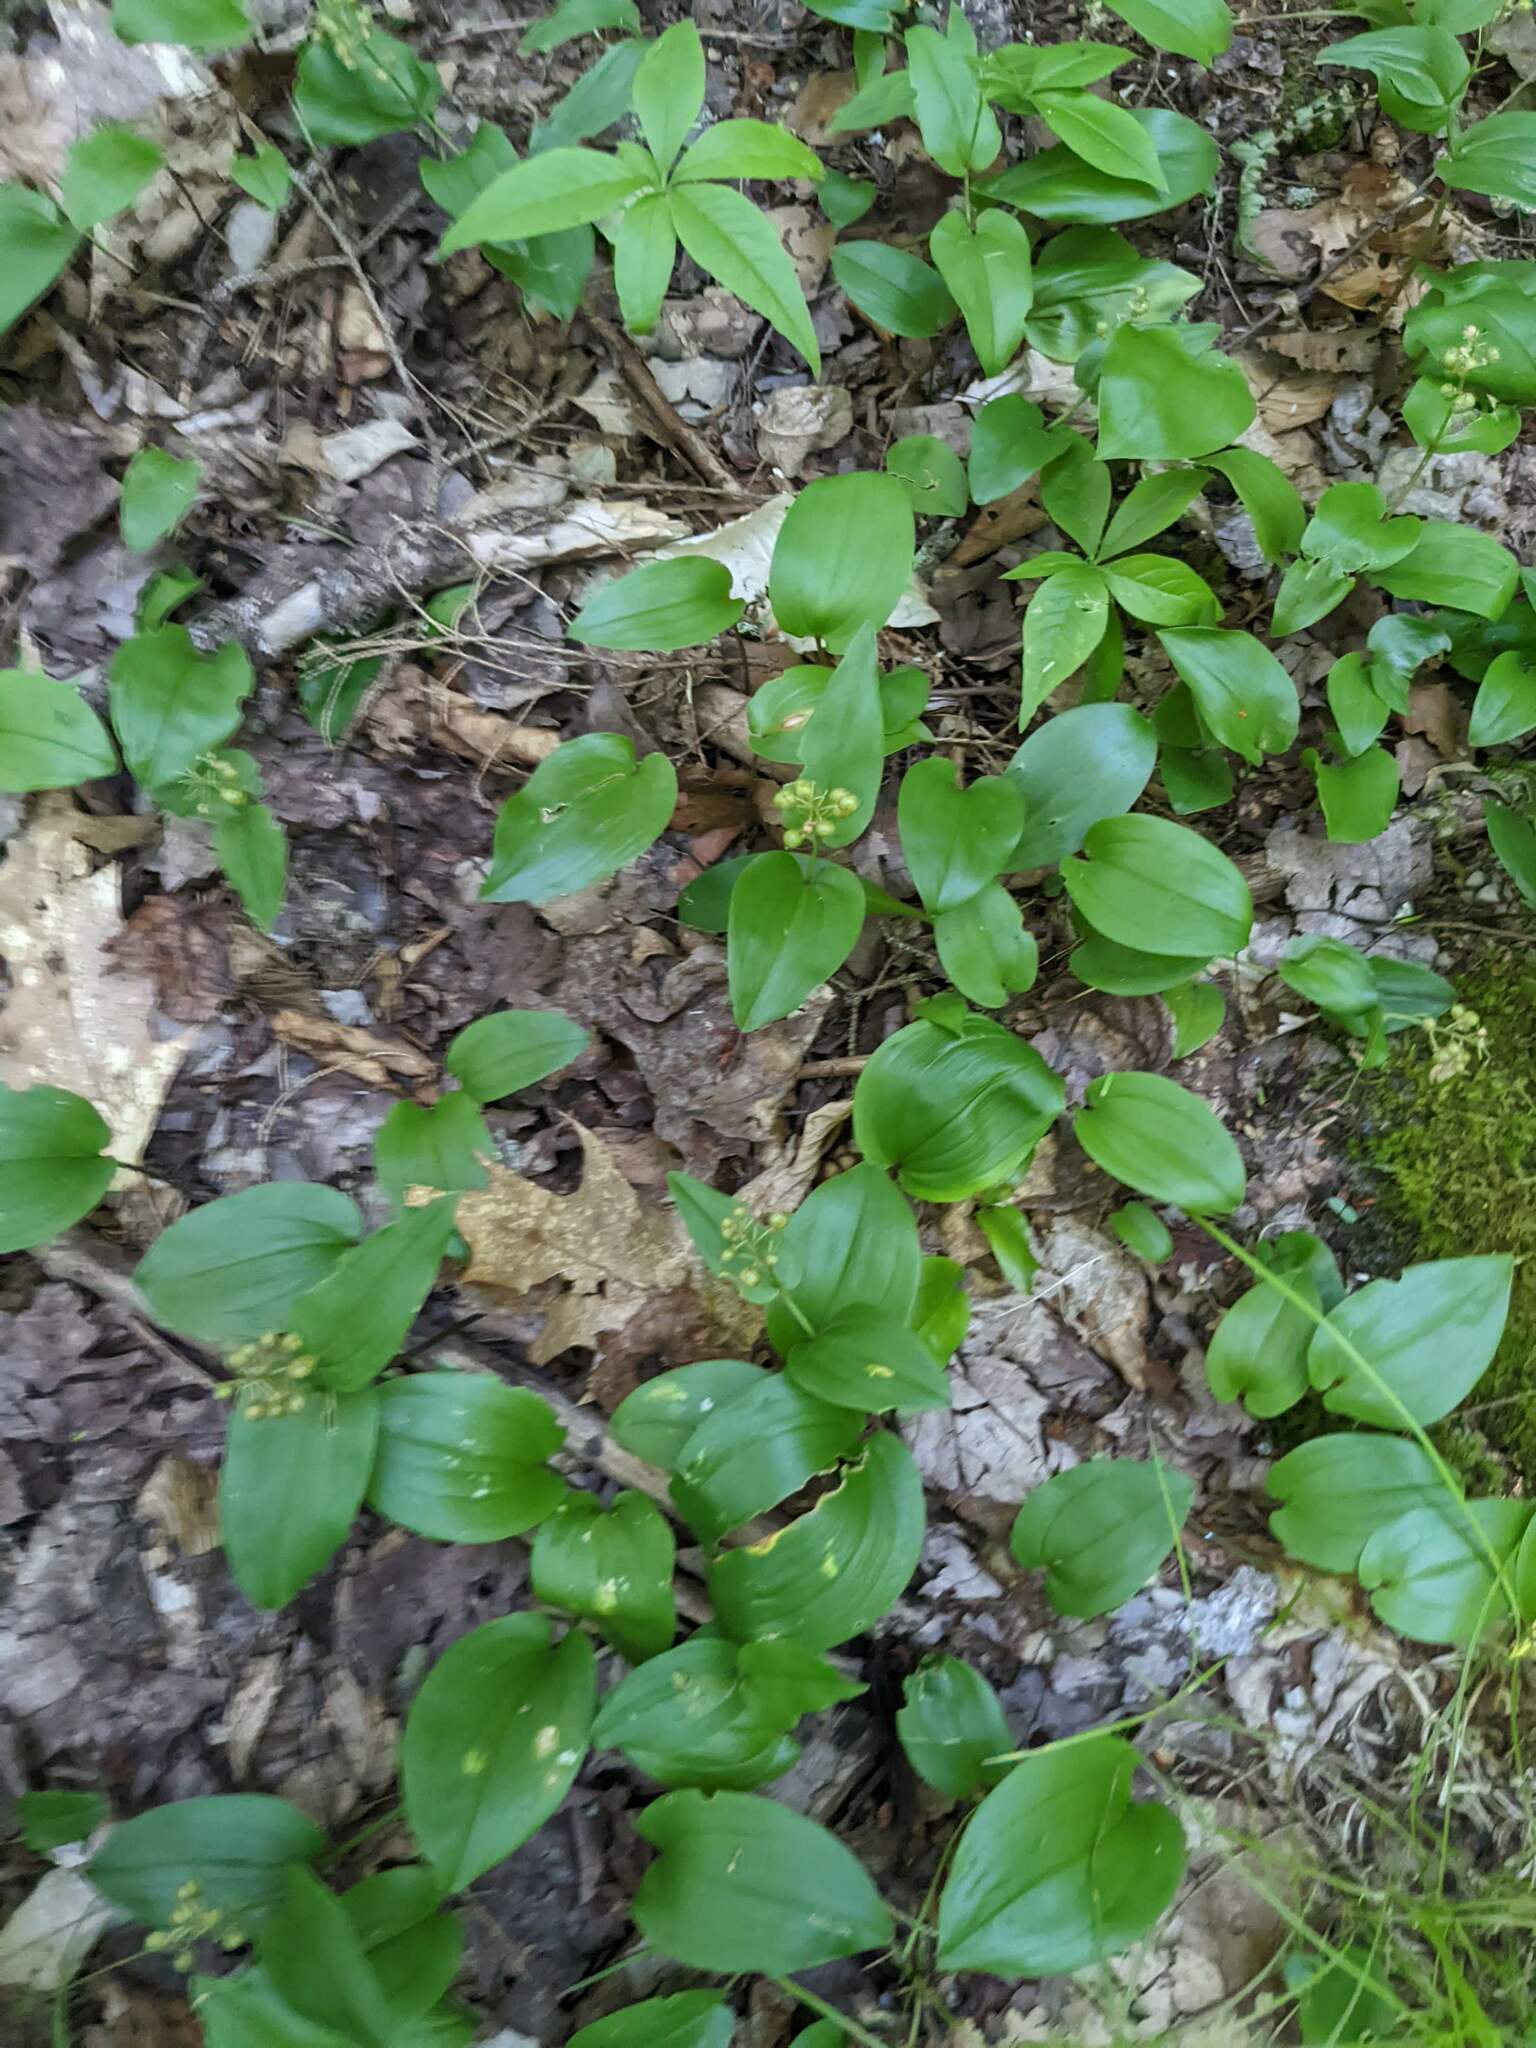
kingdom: Plantae
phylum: Tracheophyta
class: Liliopsida
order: Asparagales
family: Asparagaceae
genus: Maianthemum
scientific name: Maianthemum canadense
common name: False lily-of-the-valley
